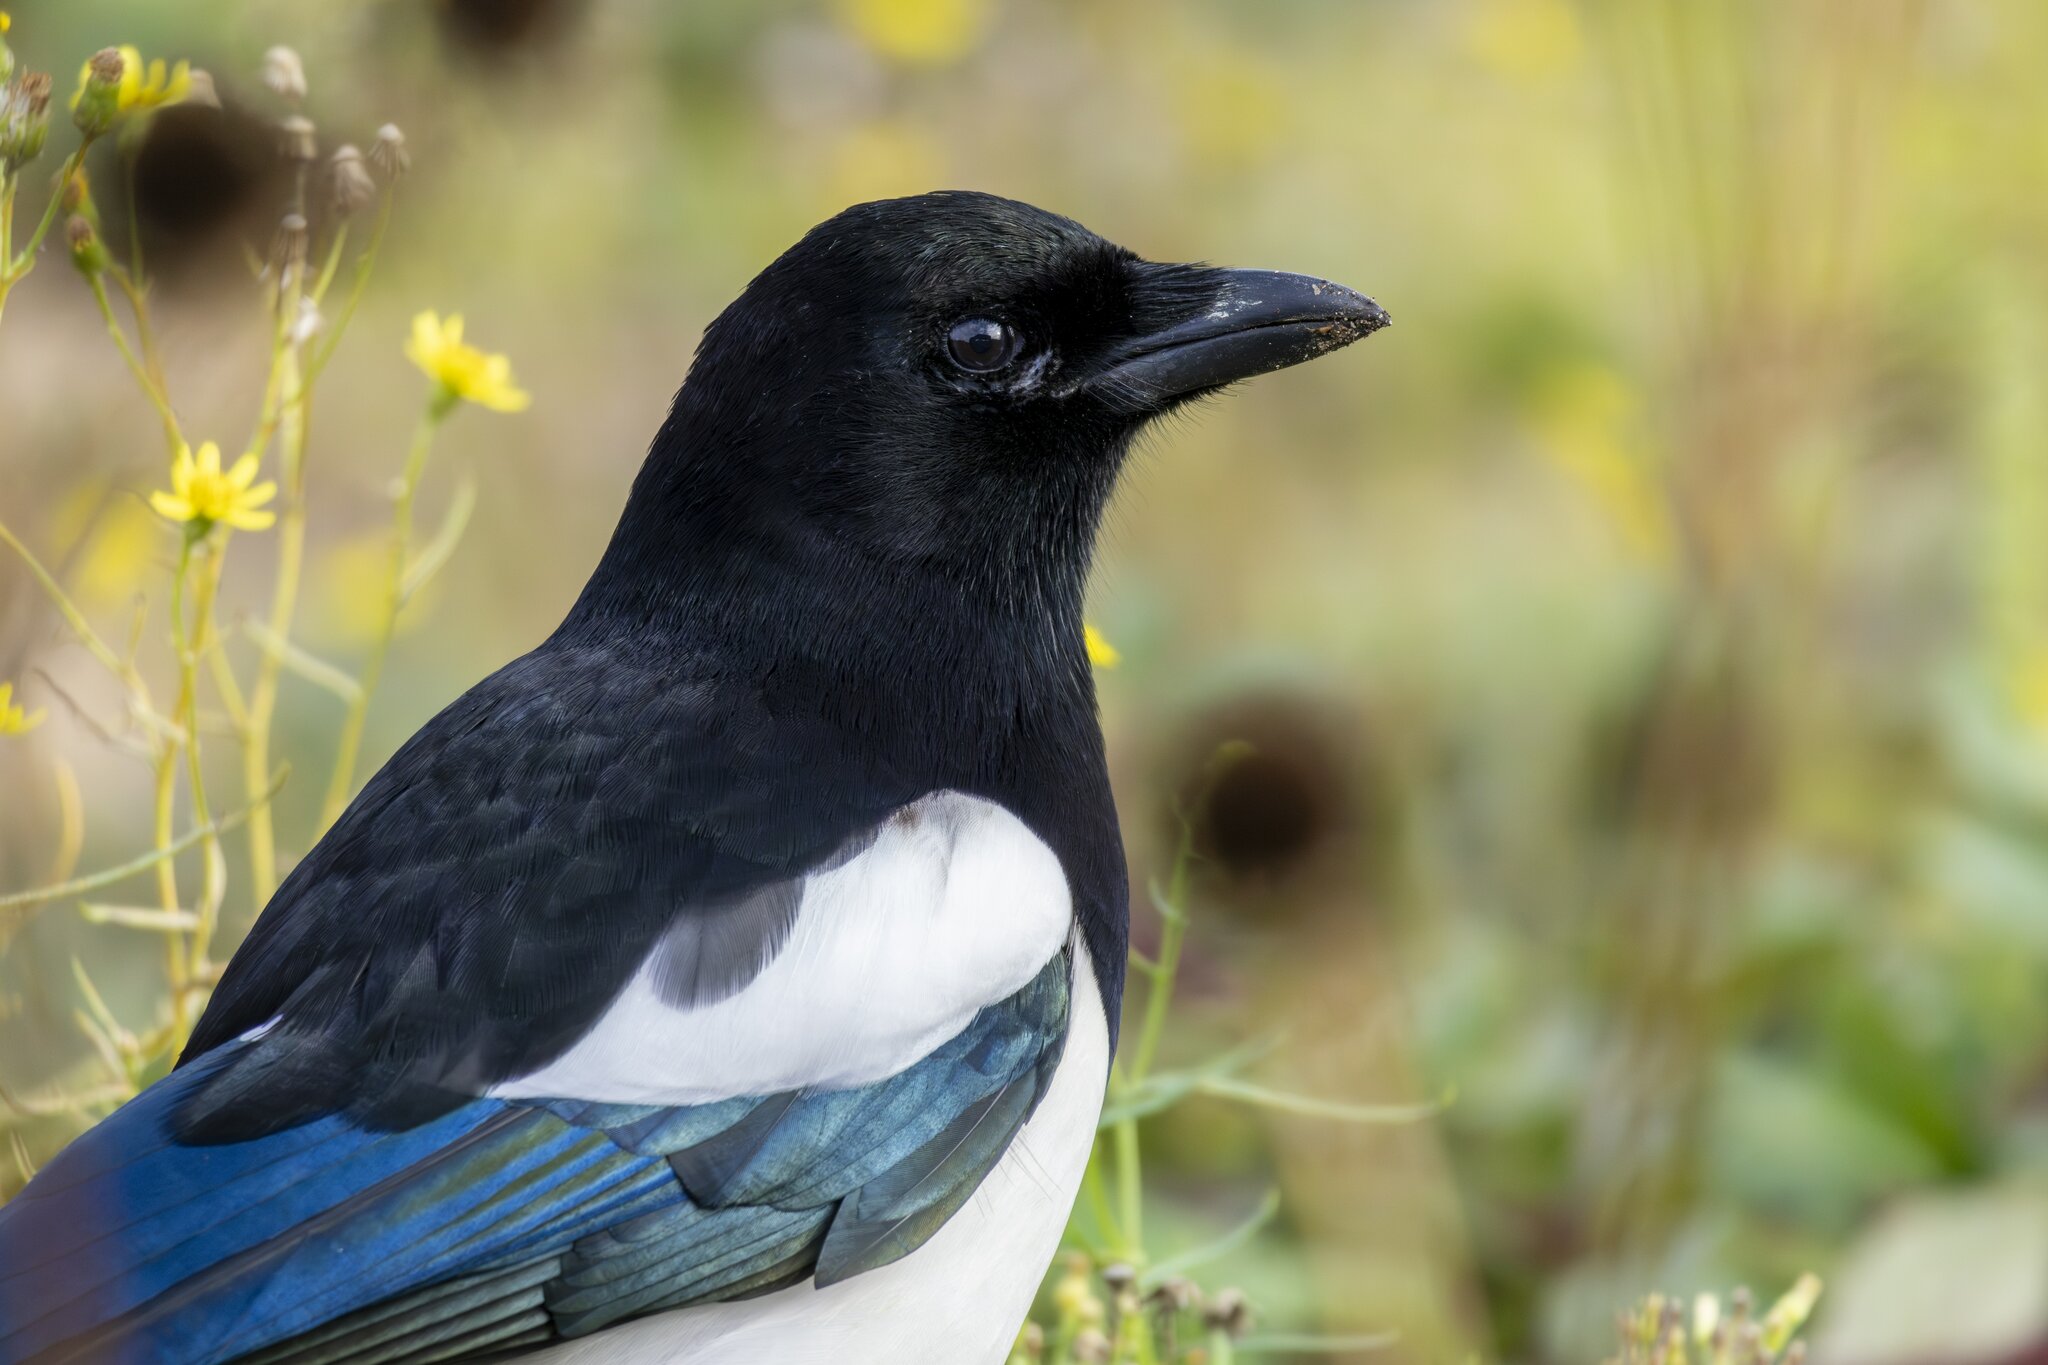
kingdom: Animalia
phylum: Chordata
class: Aves
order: Passeriformes
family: Corvidae
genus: Pica
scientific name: Pica pica
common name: Eurasian magpie
